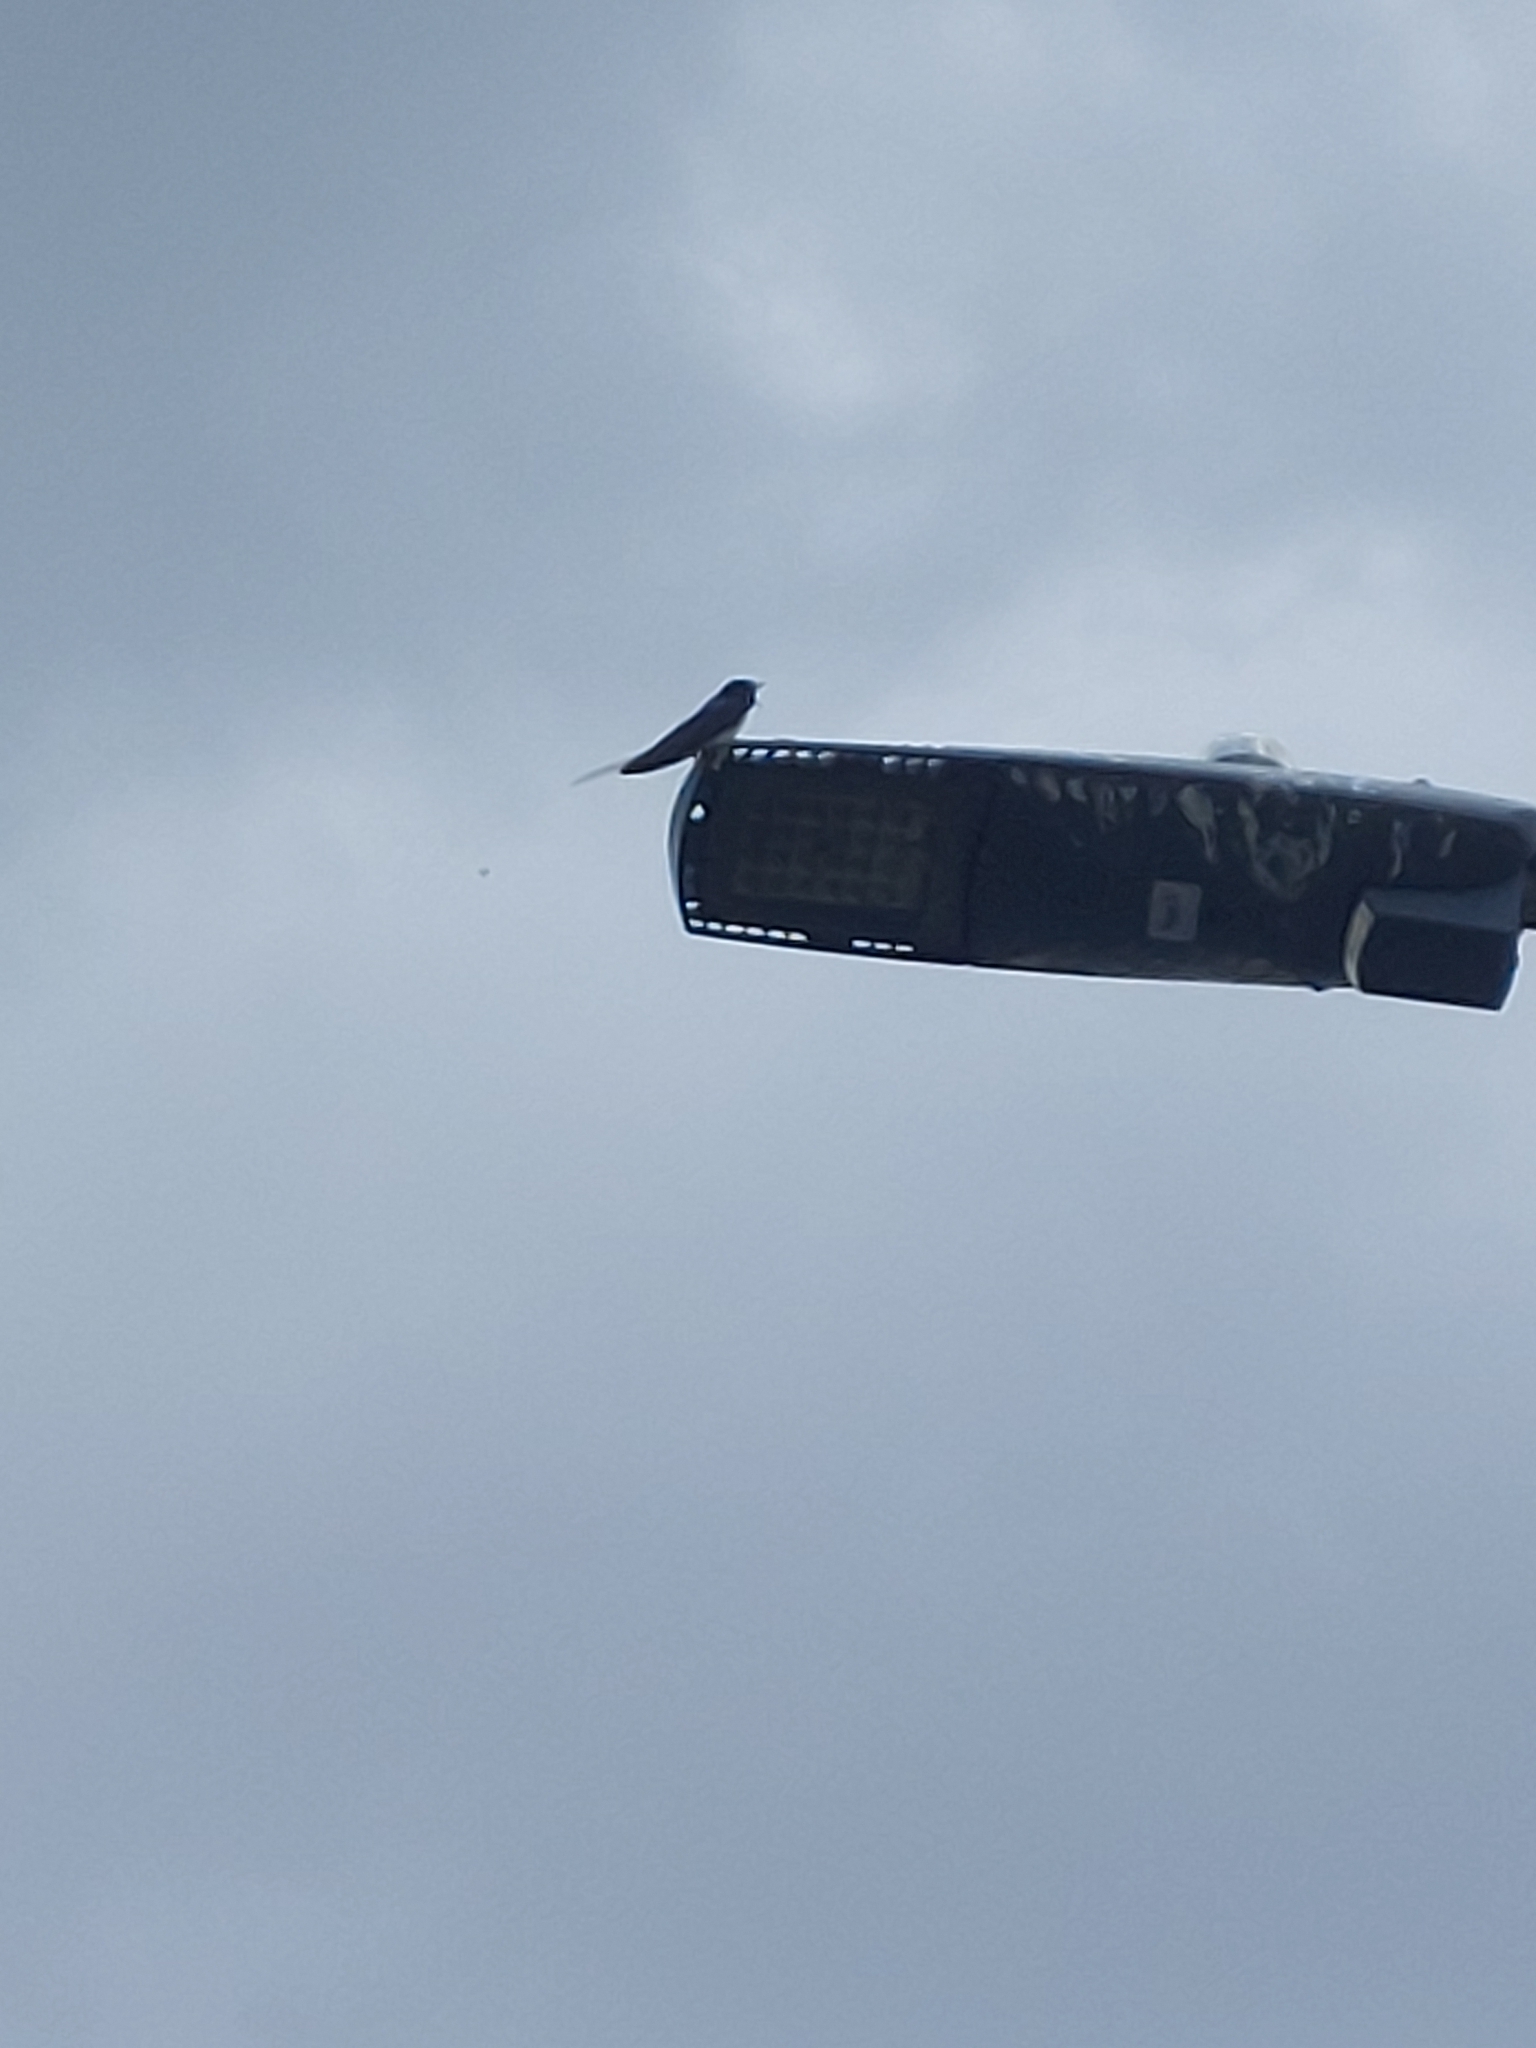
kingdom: Animalia
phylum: Chordata
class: Aves
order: Passeriformes
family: Hirundinidae
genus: Hirundo
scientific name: Hirundo rustica
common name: Barn swallow
